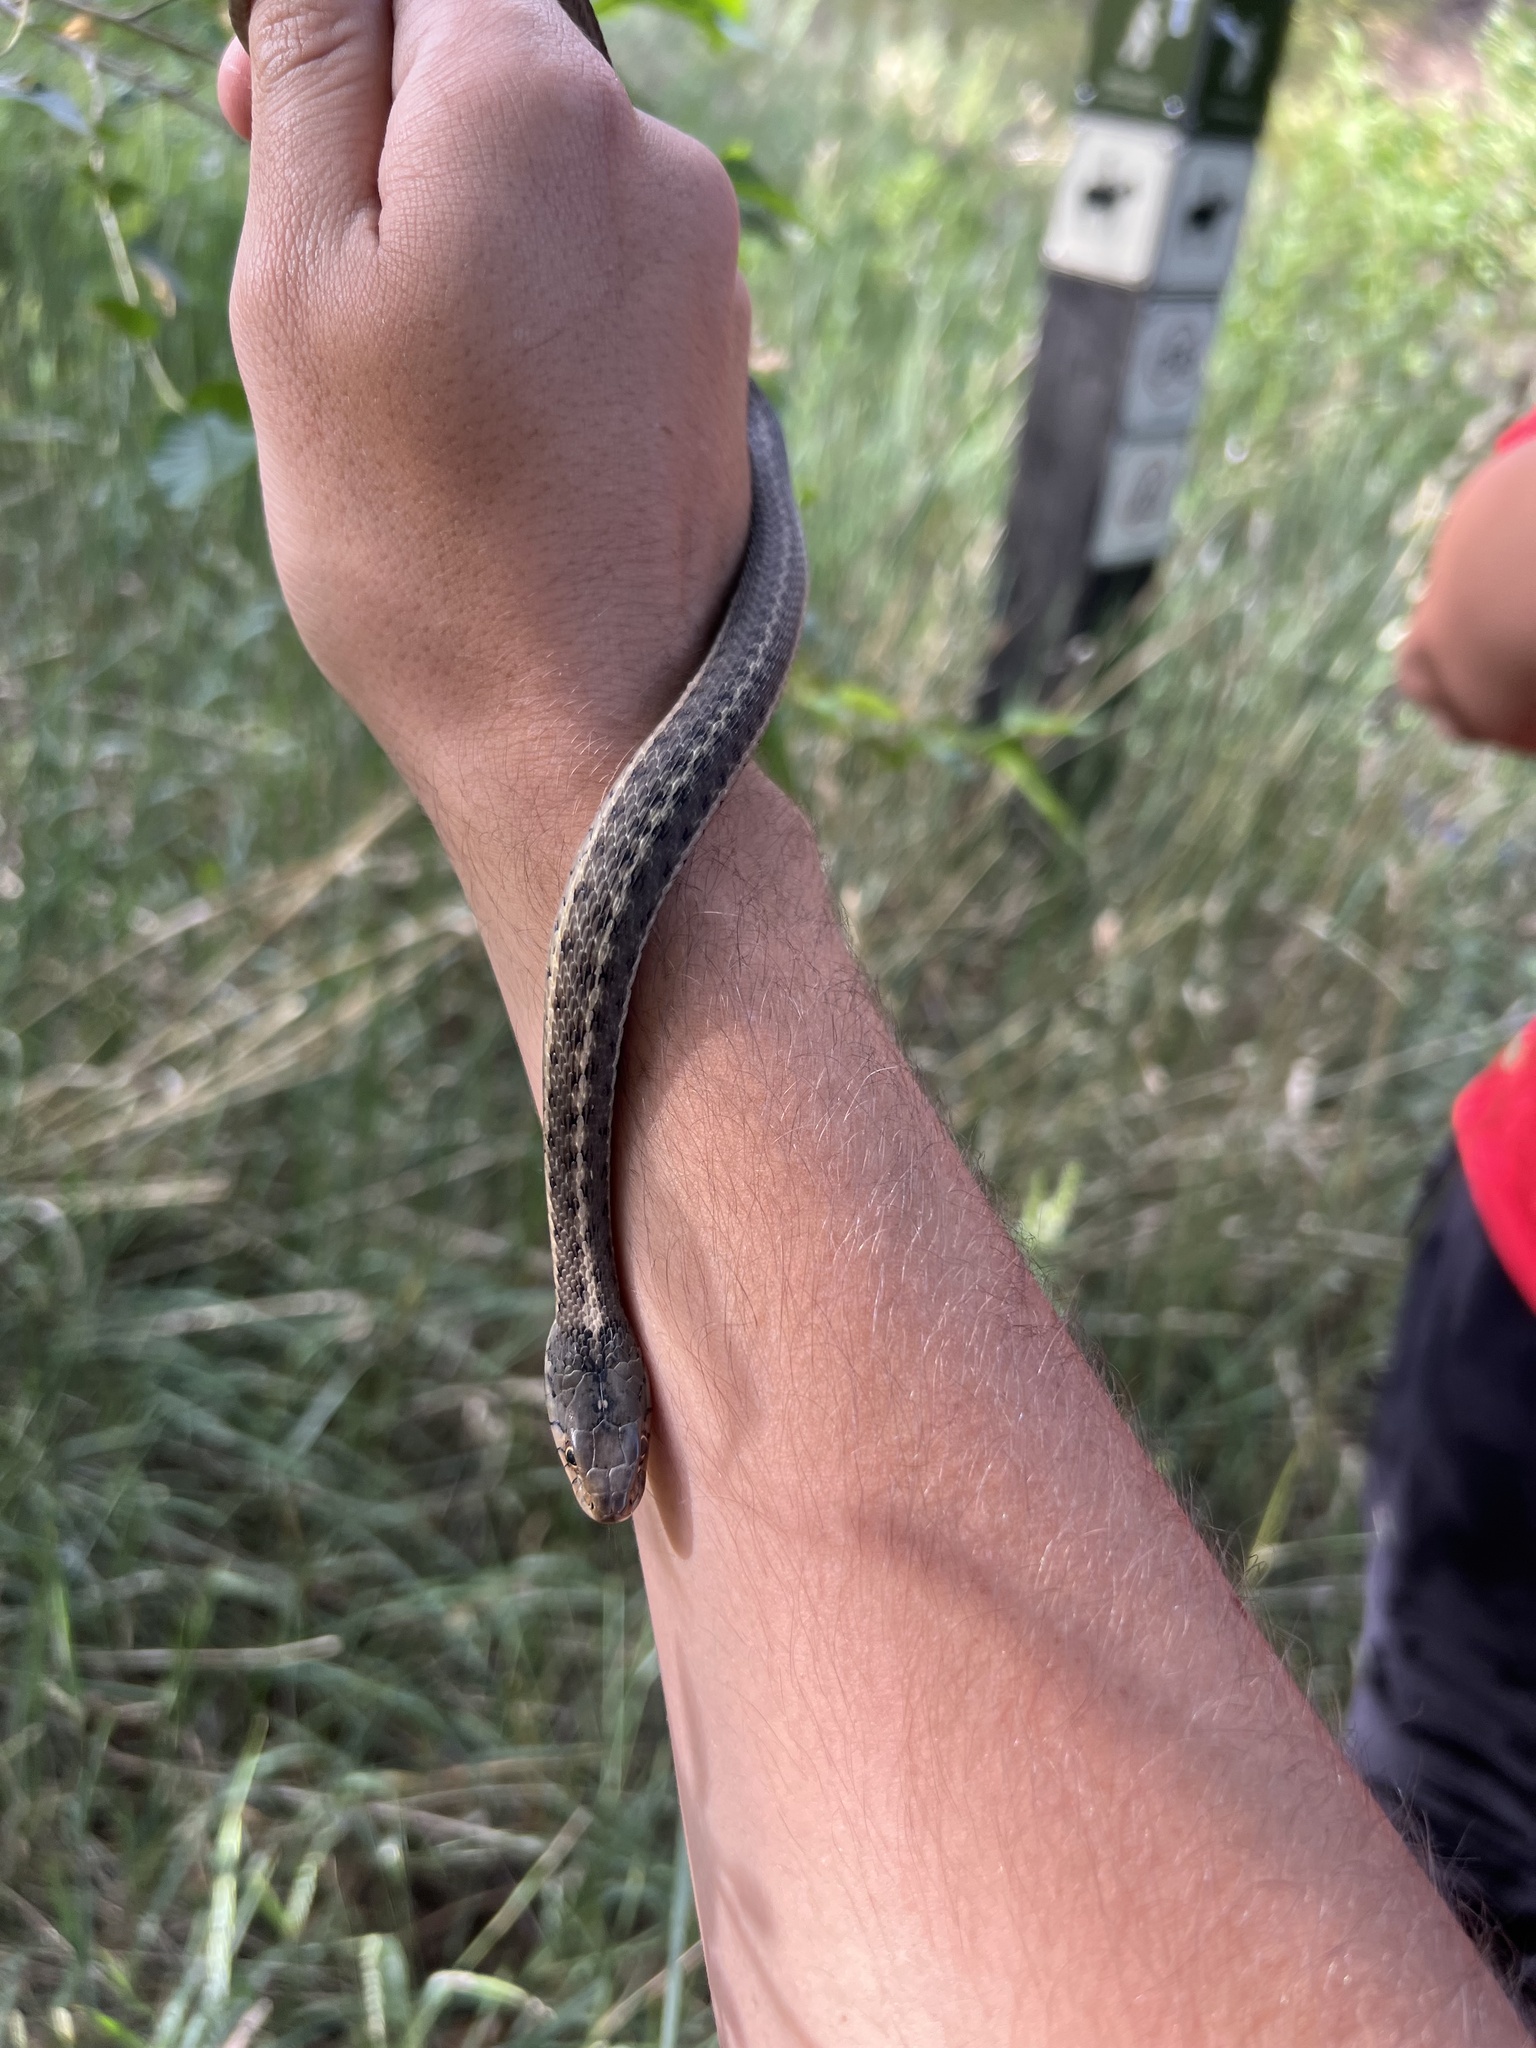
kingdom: Animalia
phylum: Chordata
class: Squamata
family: Colubridae
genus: Thamnophis
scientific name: Thamnophis elegans
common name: Western terrestrial garter snake
